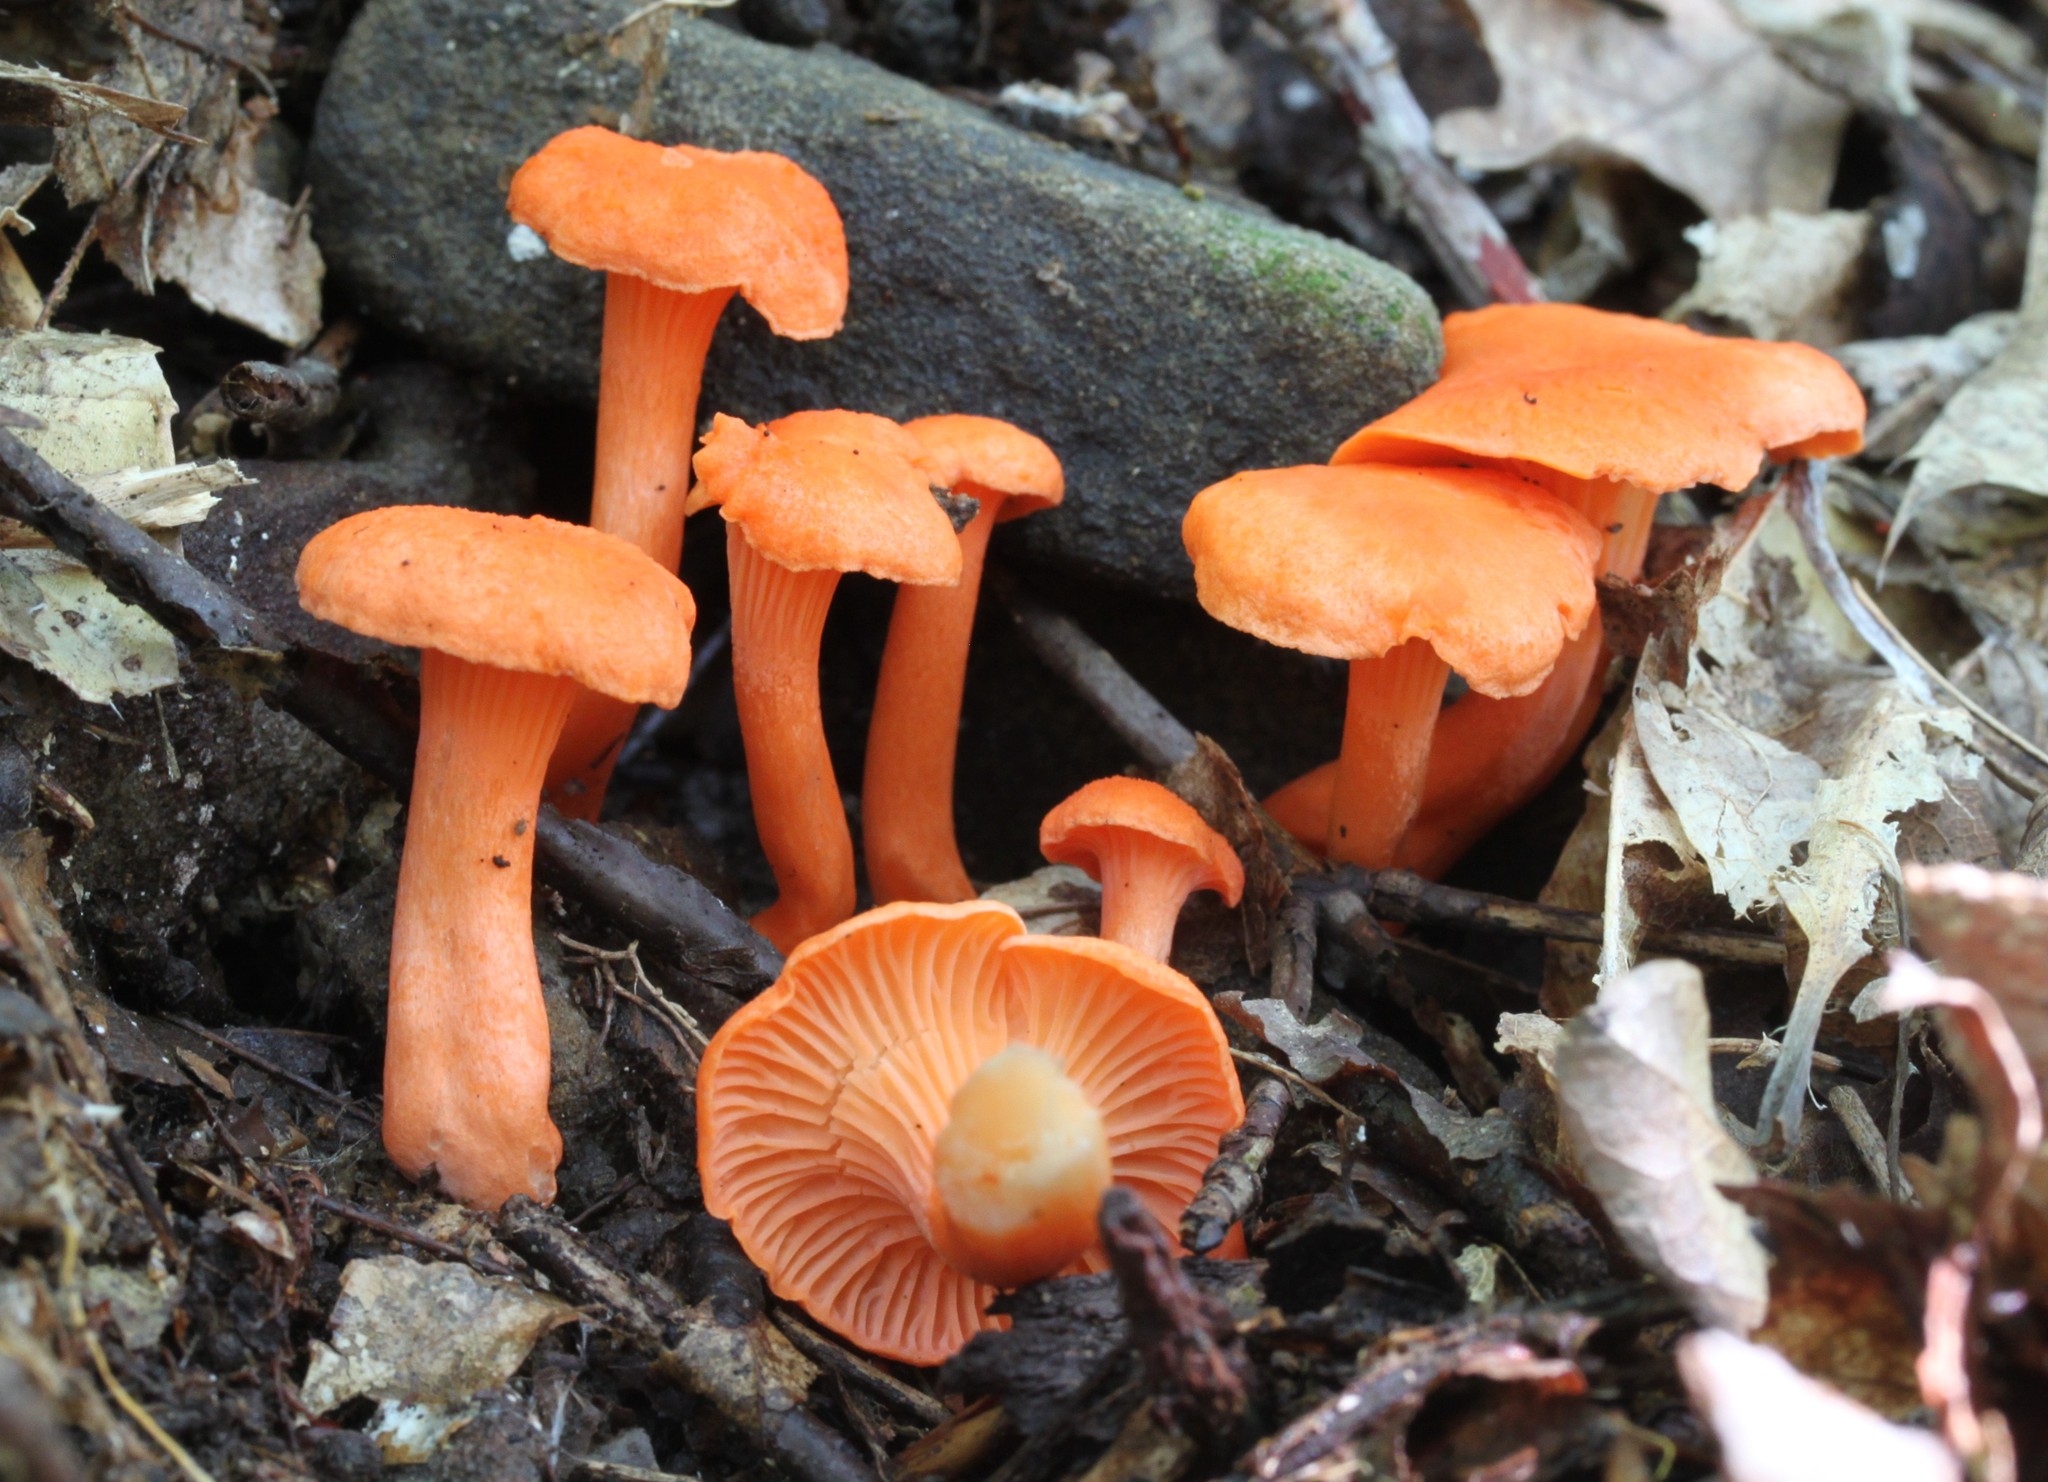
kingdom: Fungi
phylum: Basidiomycota
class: Agaricomycetes
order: Cantharellales
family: Hydnaceae
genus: Cantharellus
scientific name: Cantharellus cinnabarinus
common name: Cinnabar chanterelle
